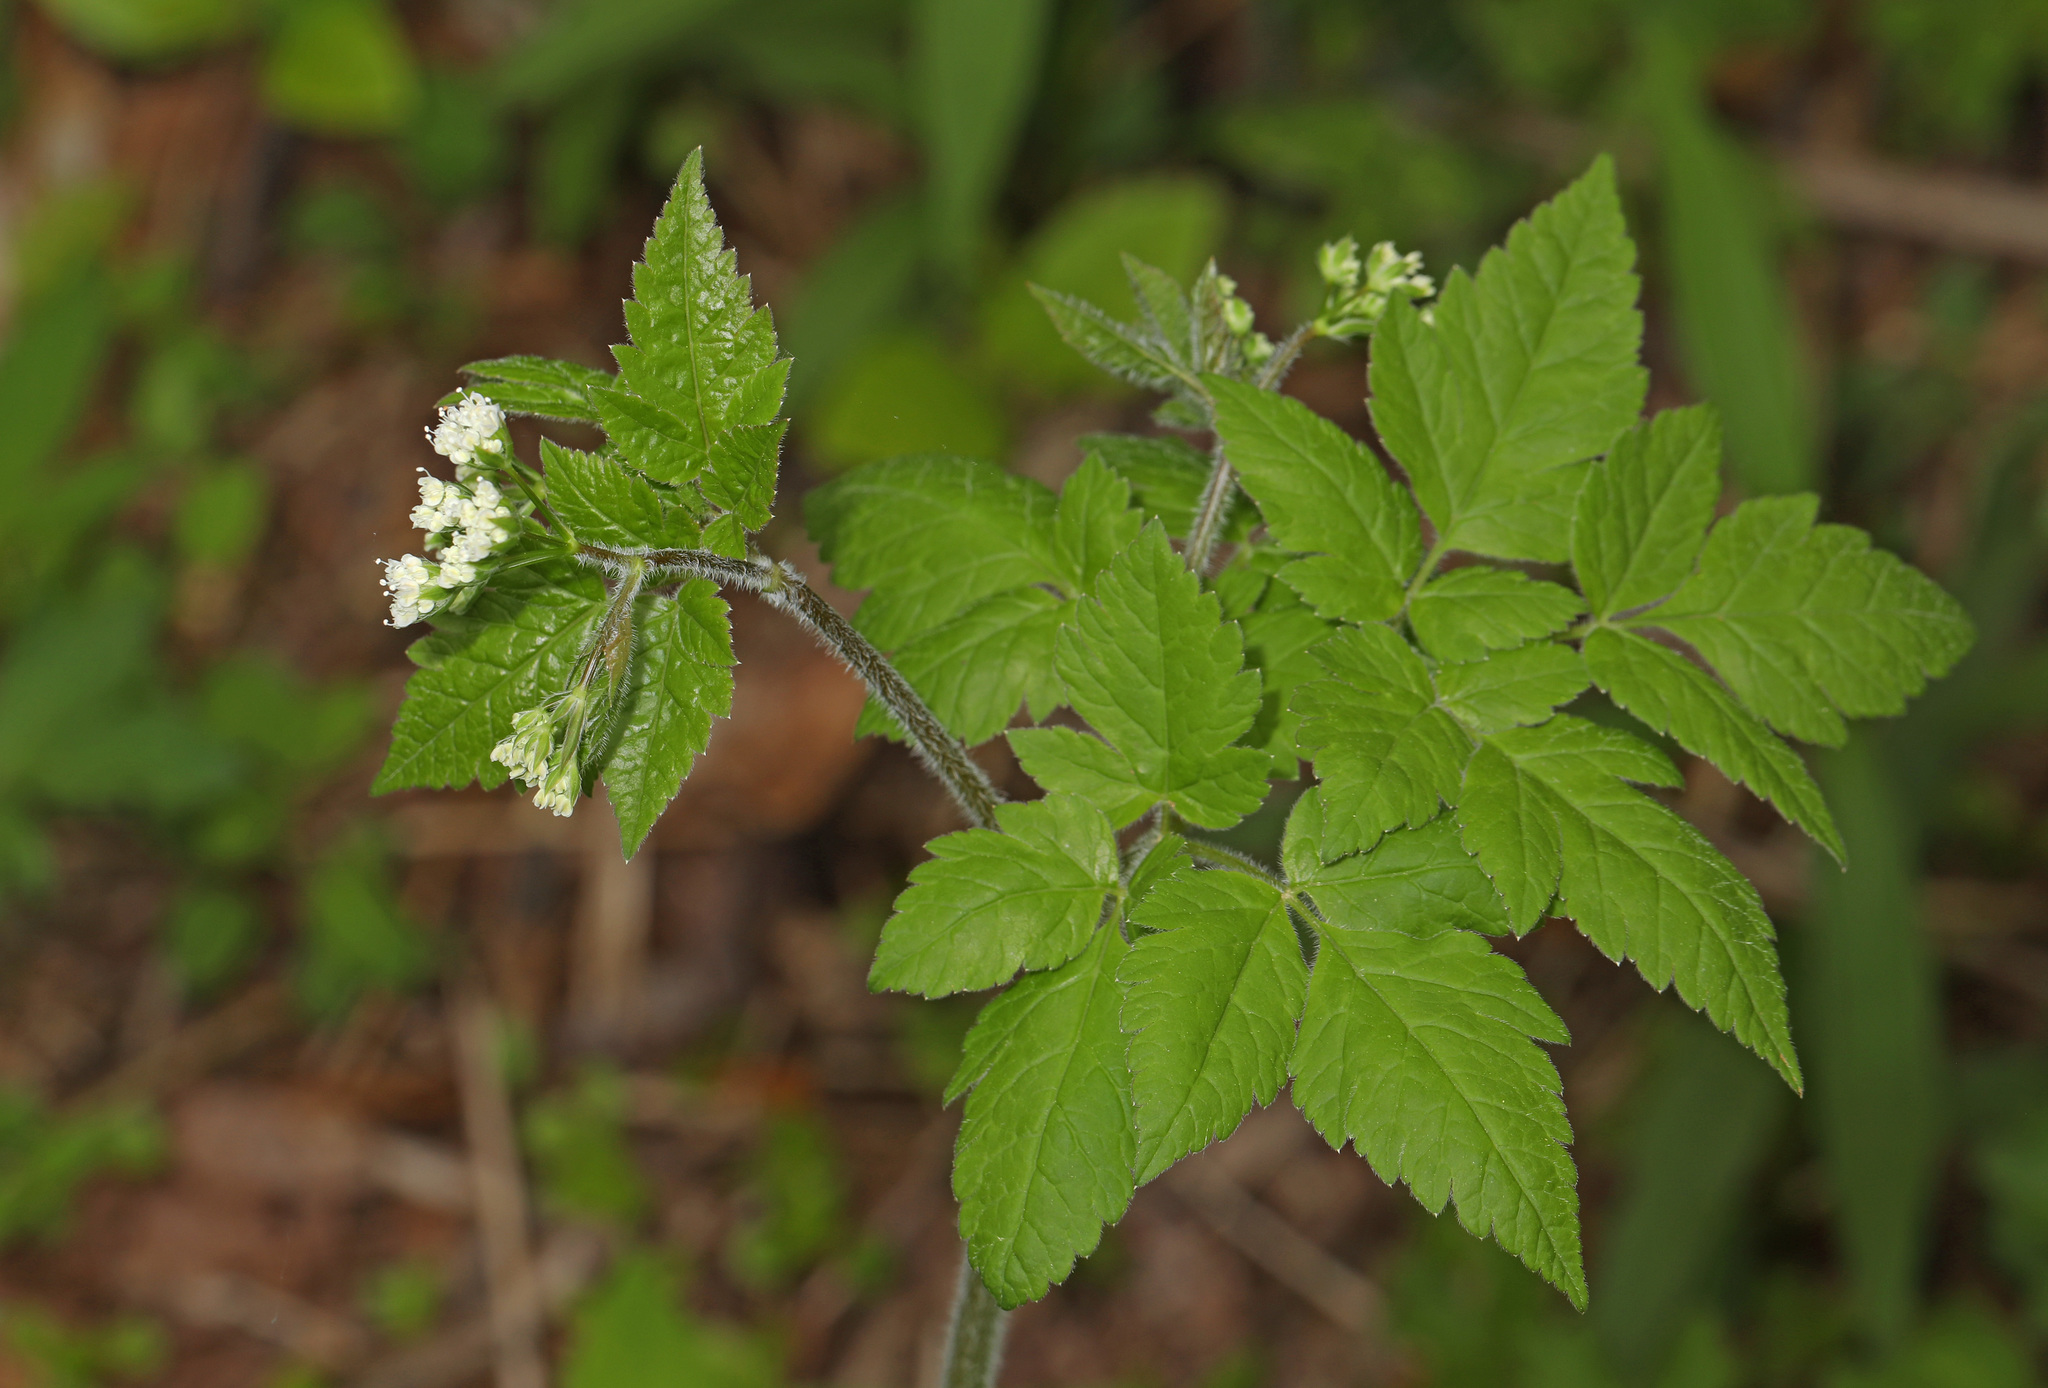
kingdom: Plantae
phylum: Tracheophyta
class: Magnoliopsida
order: Apiales
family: Apiaceae
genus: Osmorhiza
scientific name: Osmorhiza longistylis
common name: Smooth sweet cicely
